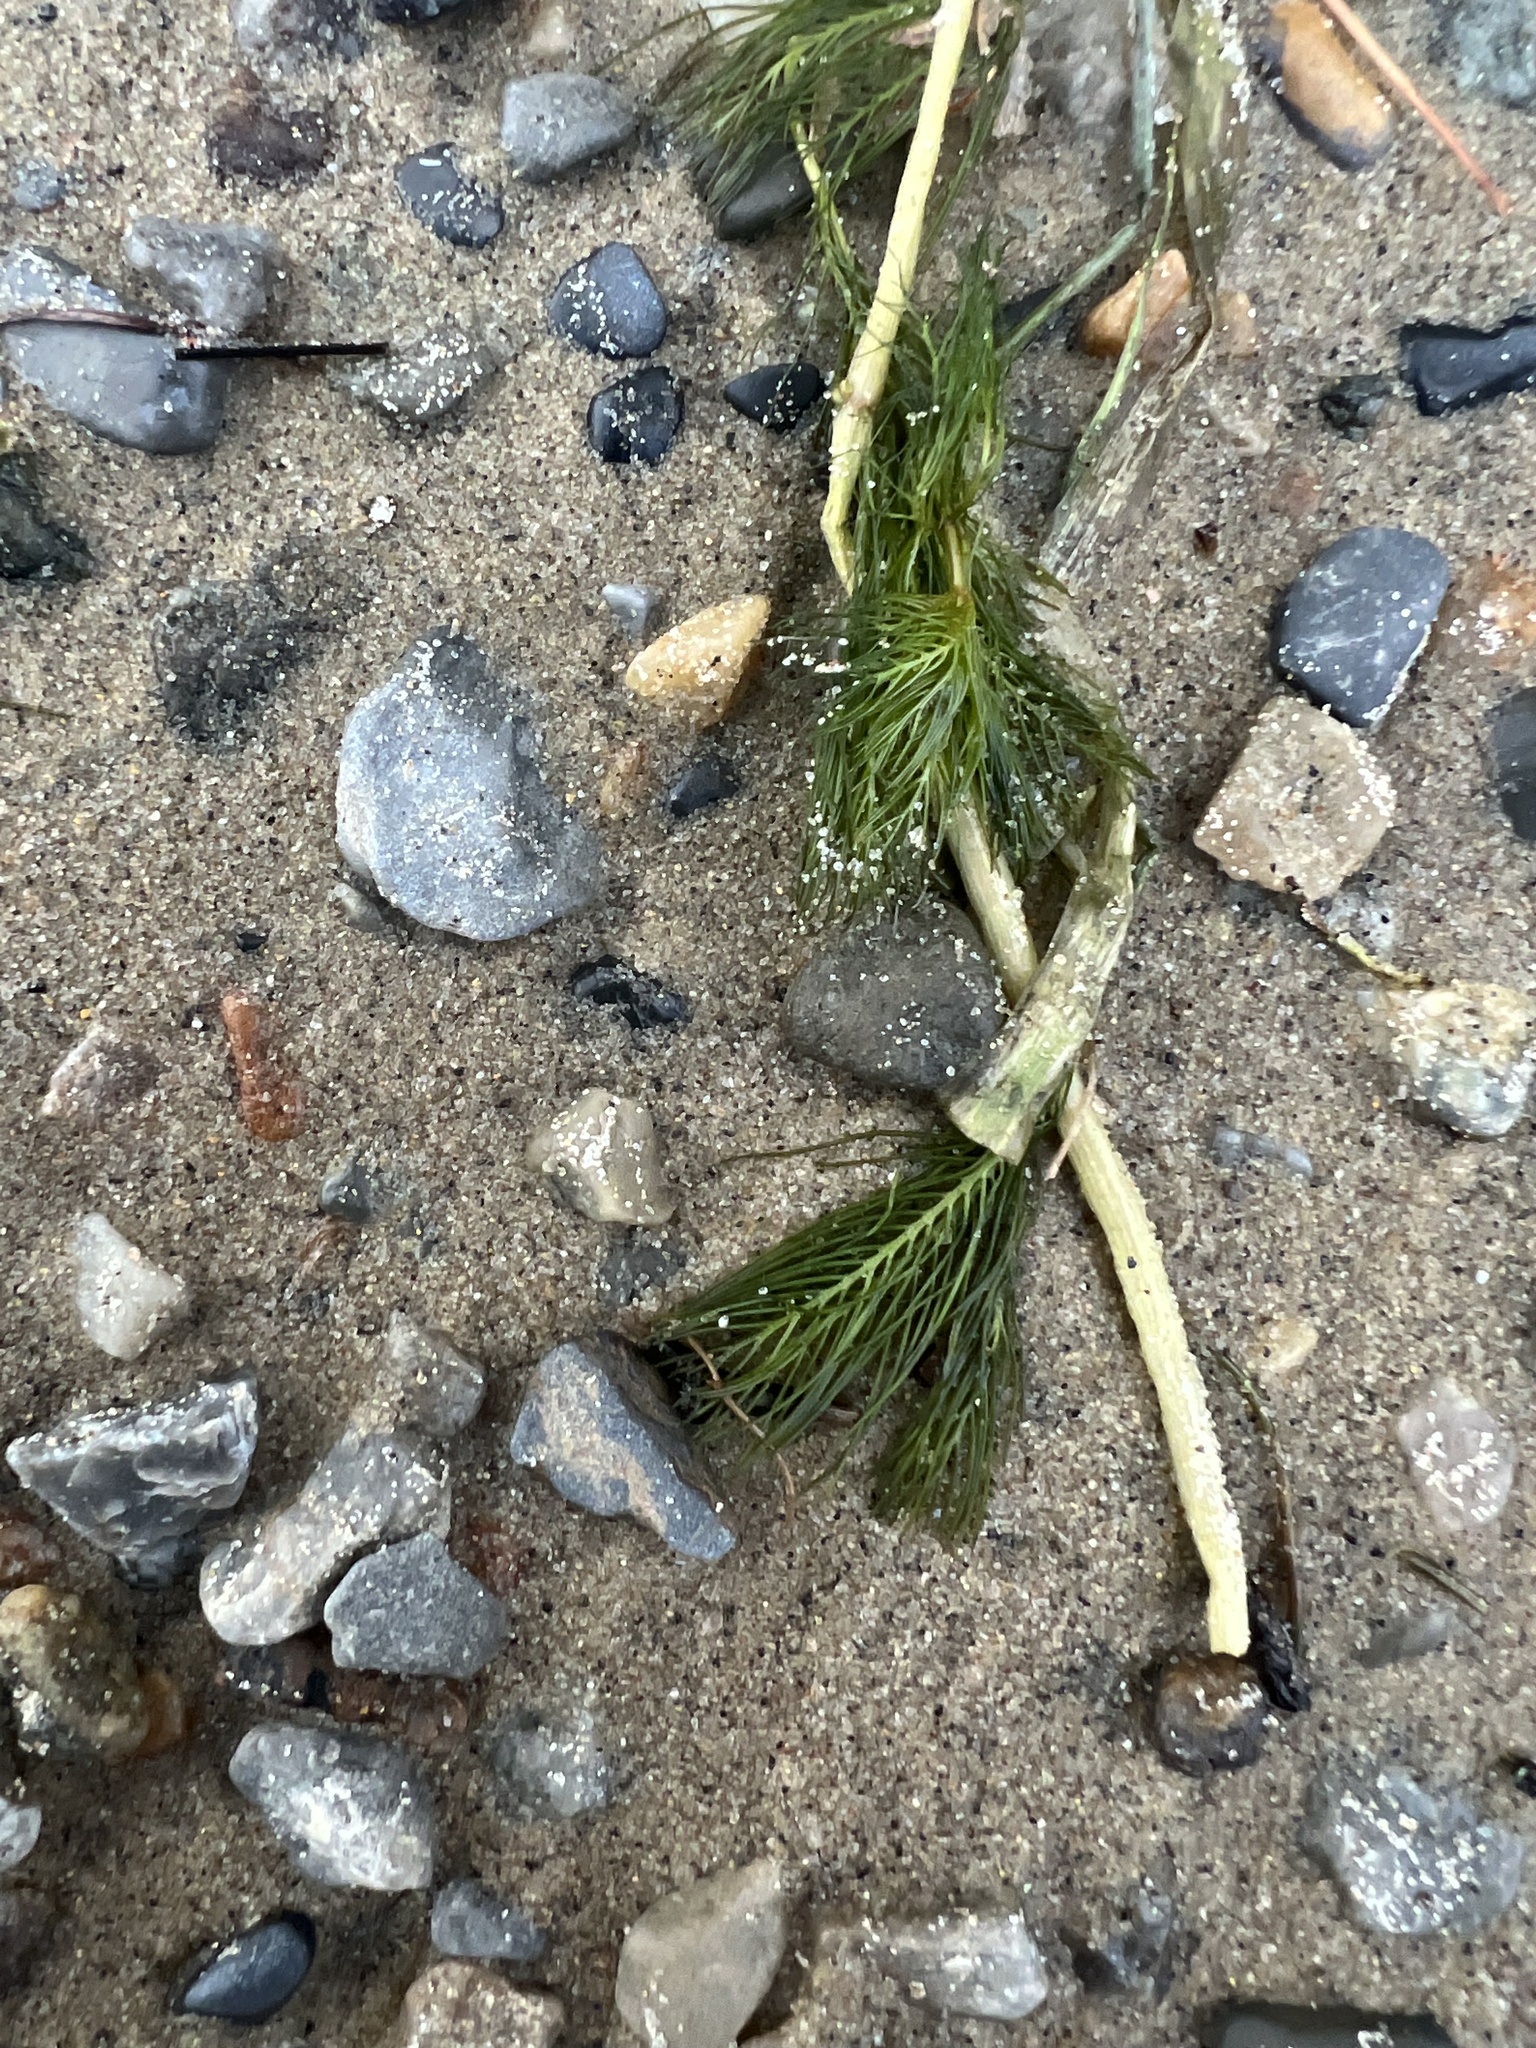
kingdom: Plantae
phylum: Tracheophyta
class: Magnoliopsida
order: Saxifragales
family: Haloragaceae
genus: Myriophyllum
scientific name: Myriophyllum spicatum
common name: Spiked water-milfoil
